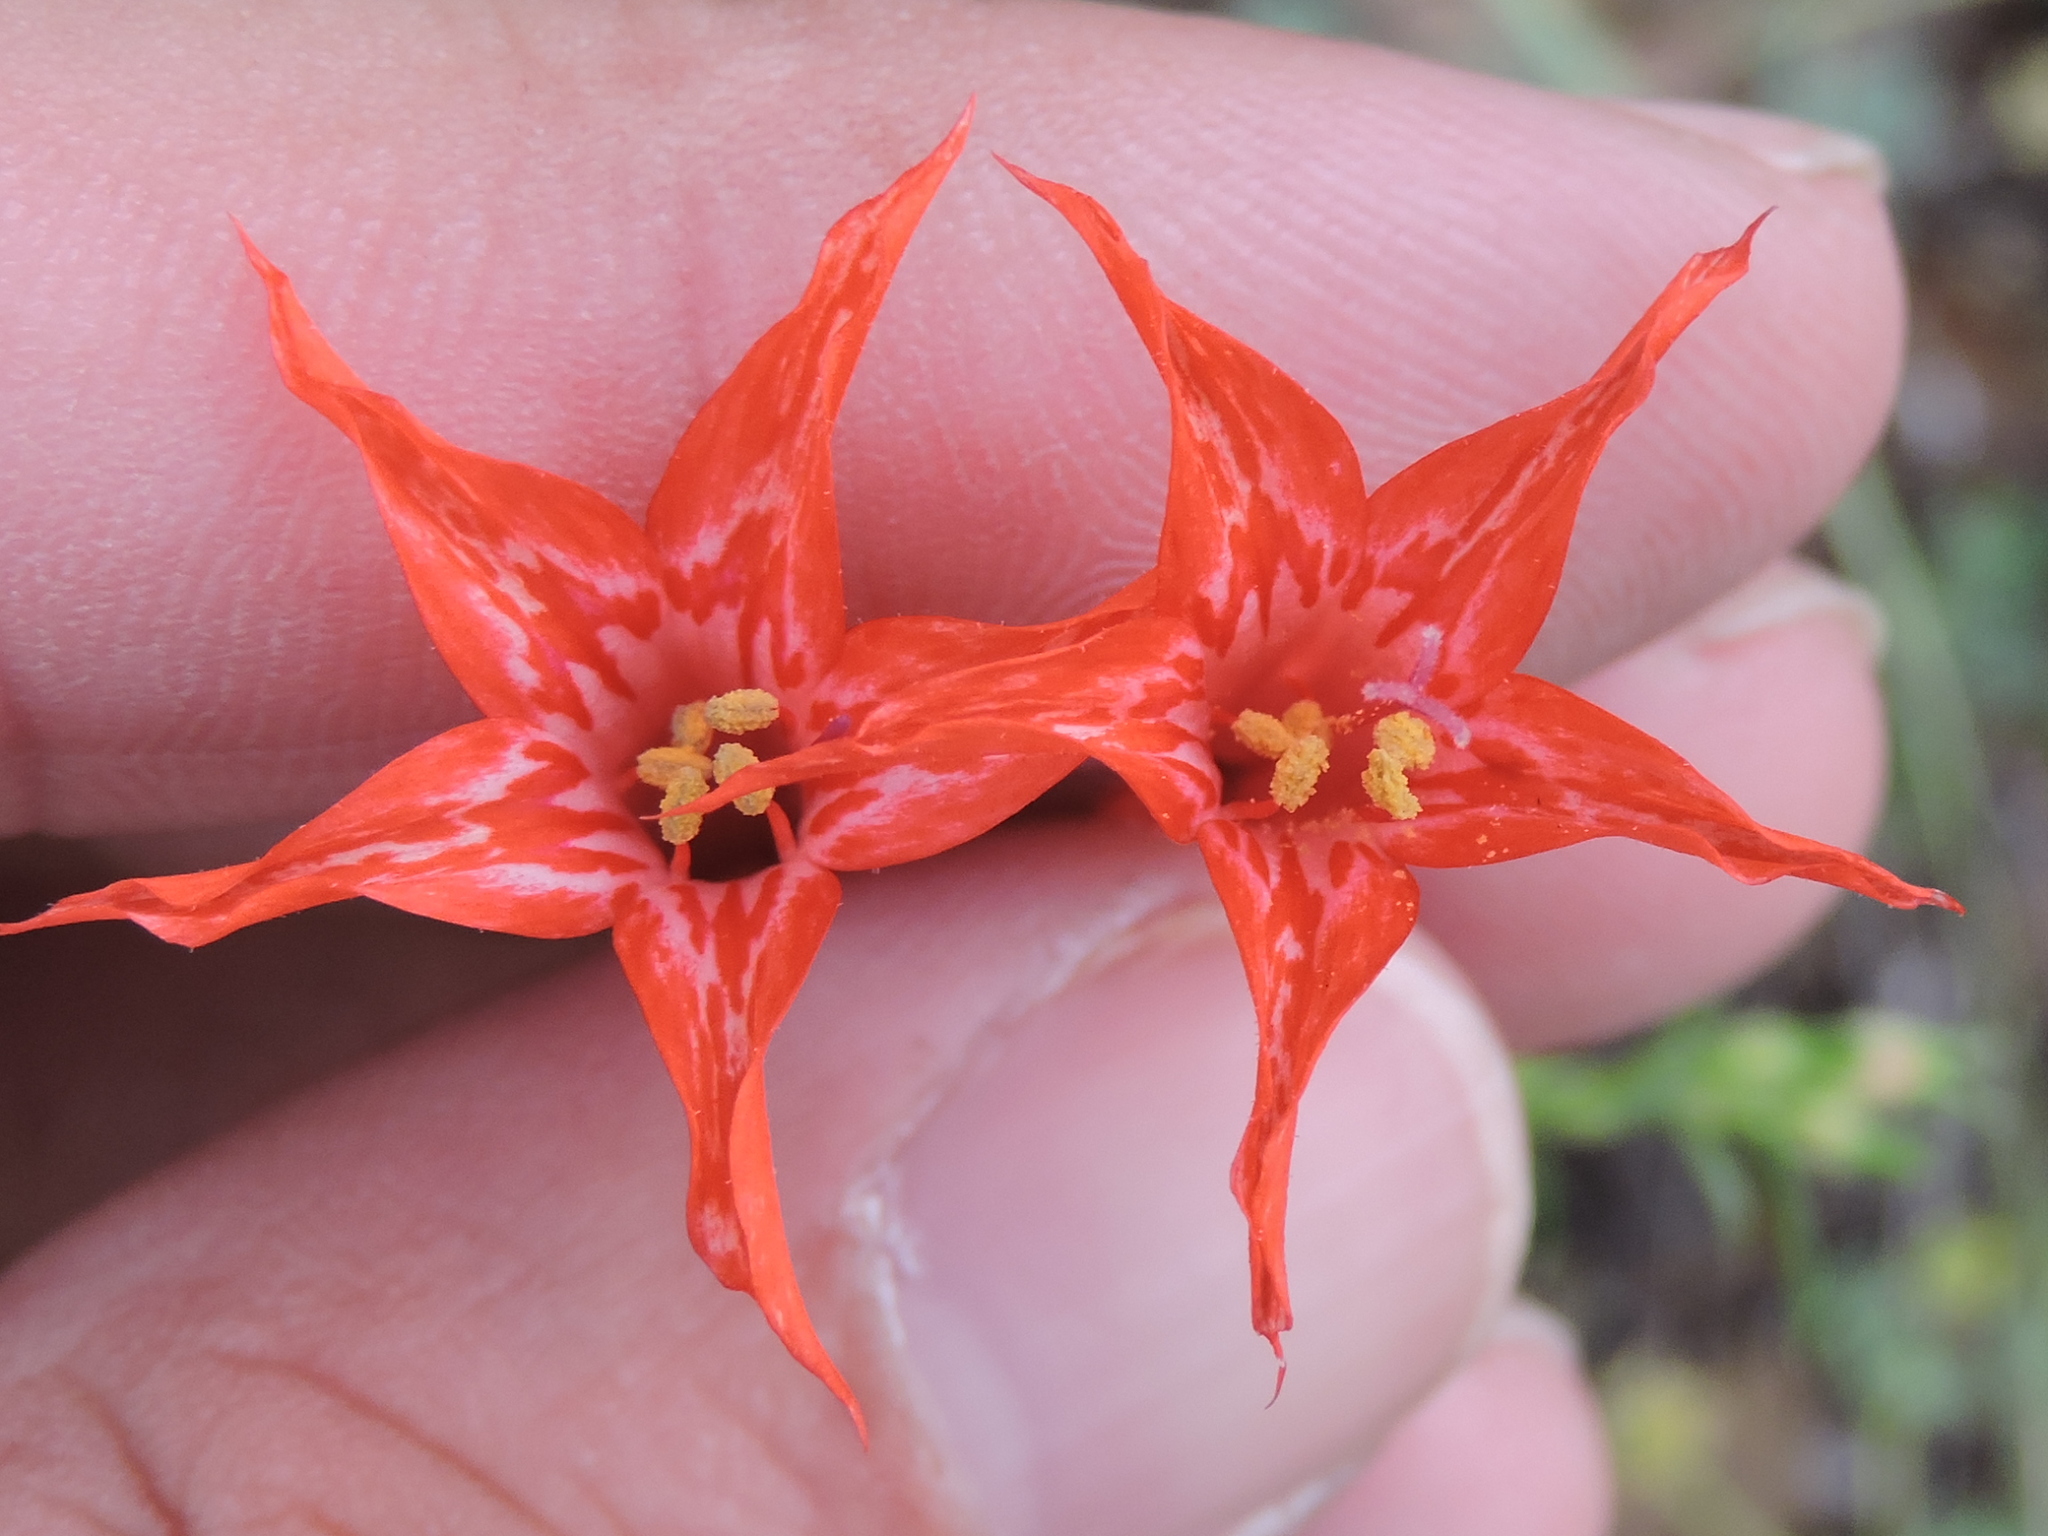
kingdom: Plantae
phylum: Tracheophyta
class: Magnoliopsida
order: Ericales
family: Polemoniaceae
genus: Ipomopsis
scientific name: Ipomopsis aggregata
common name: Scarlet gilia
